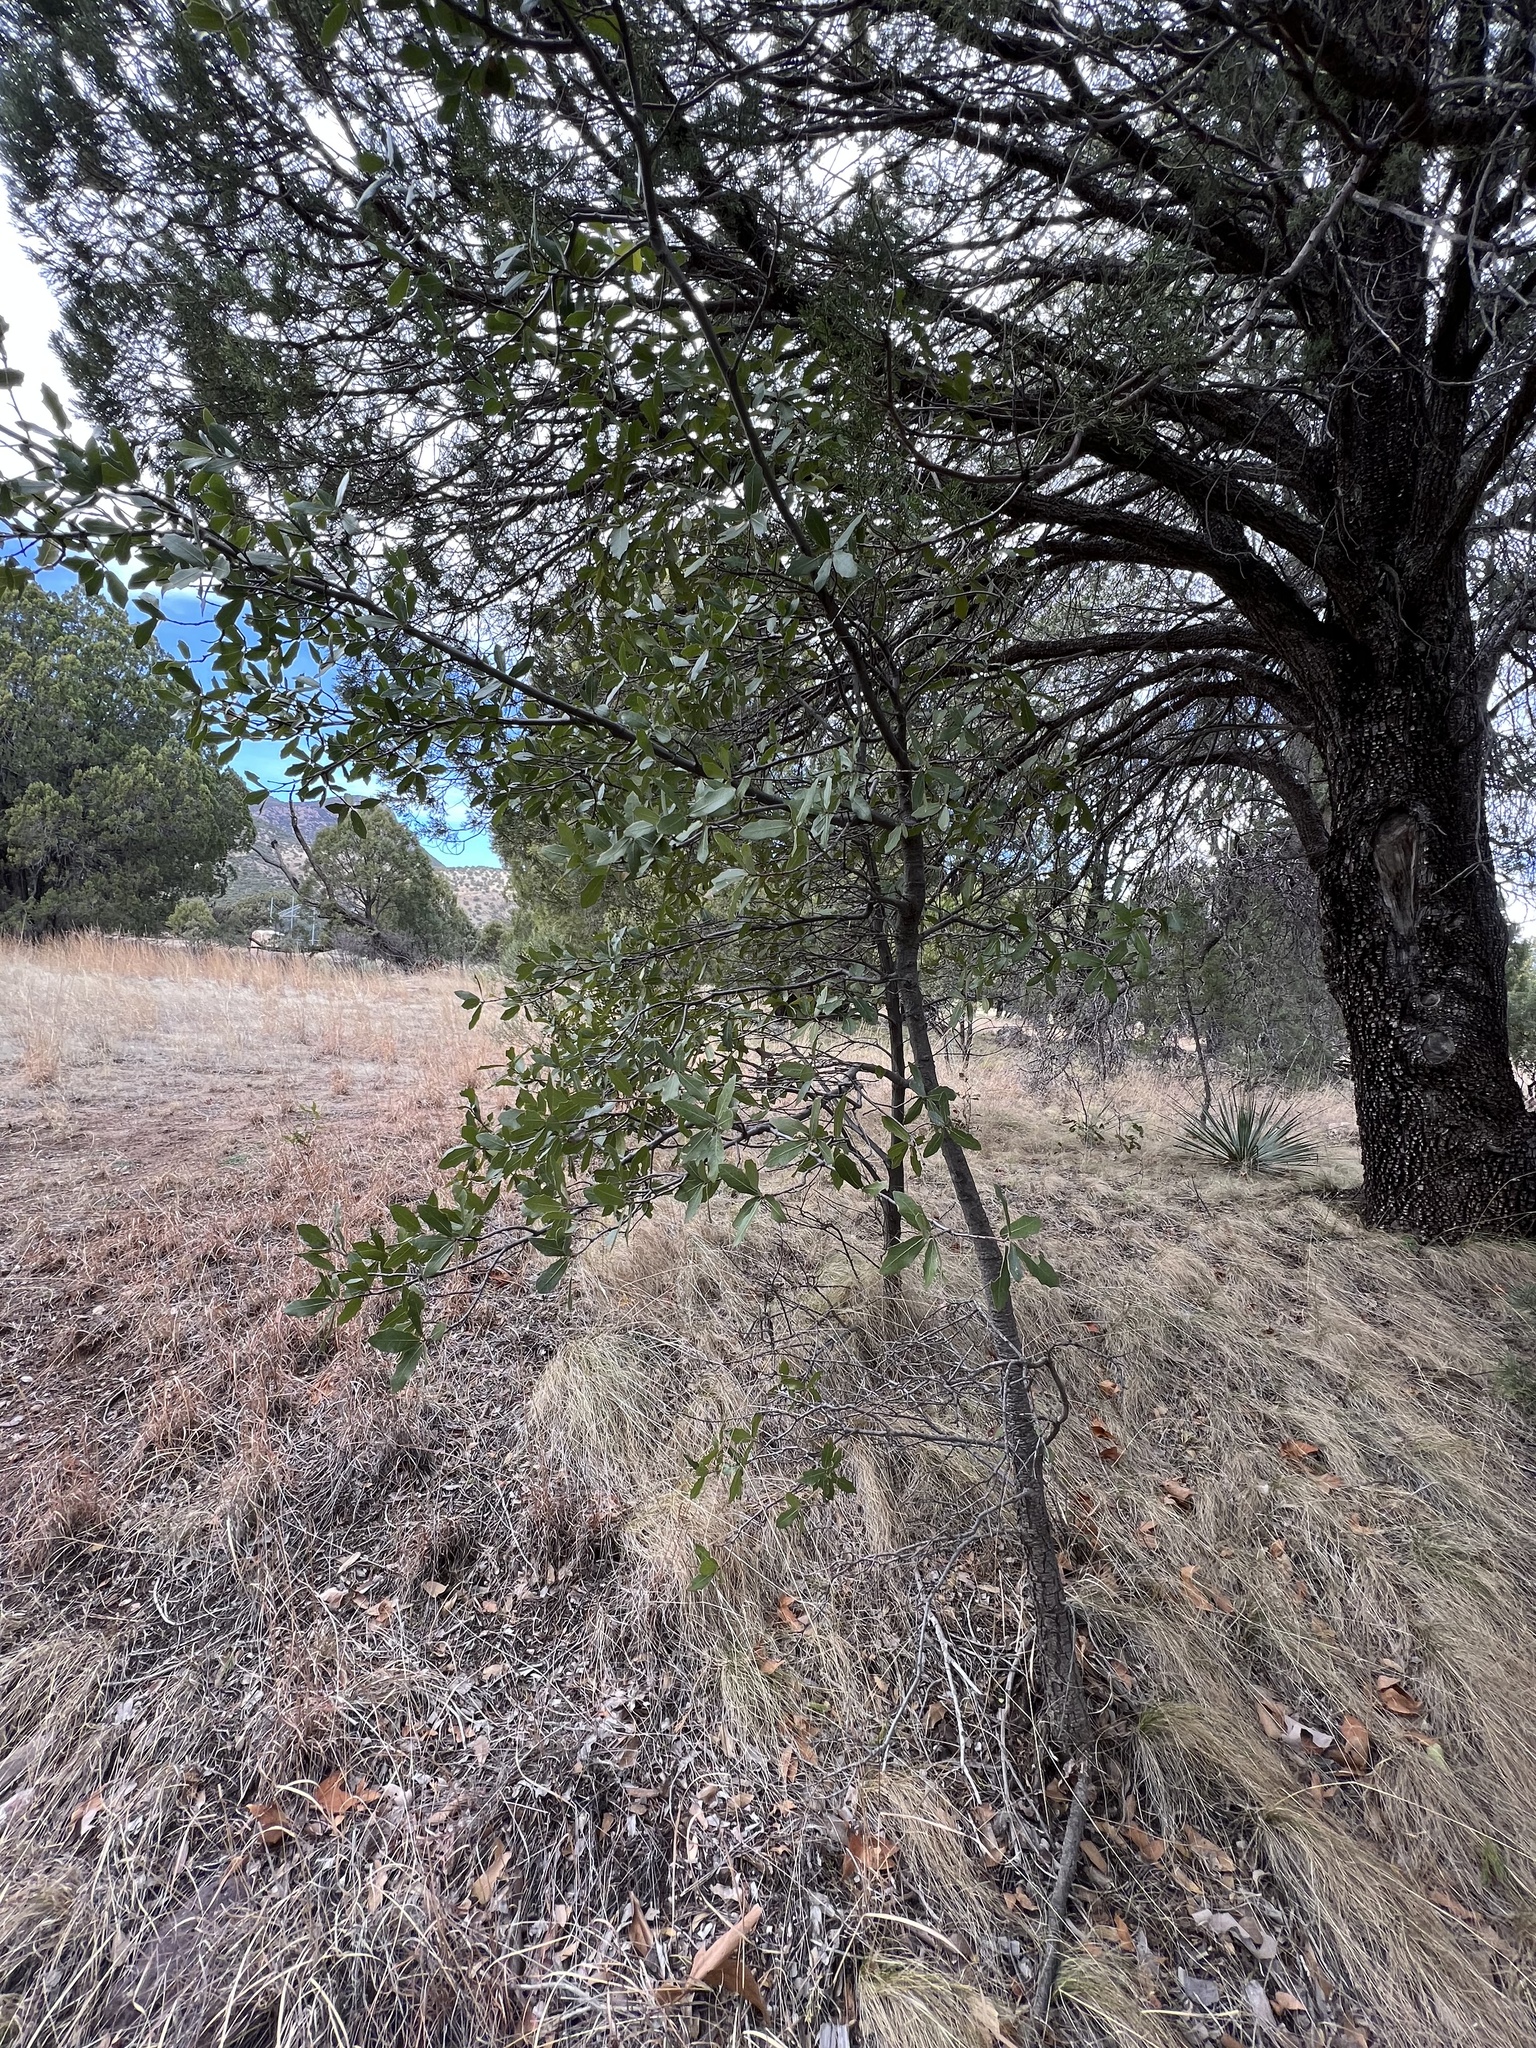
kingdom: Plantae
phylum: Tracheophyta
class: Magnoliopsida
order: Fagales
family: Fagaceae
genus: Quercus
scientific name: Quercus emoryi
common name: Emory oak
